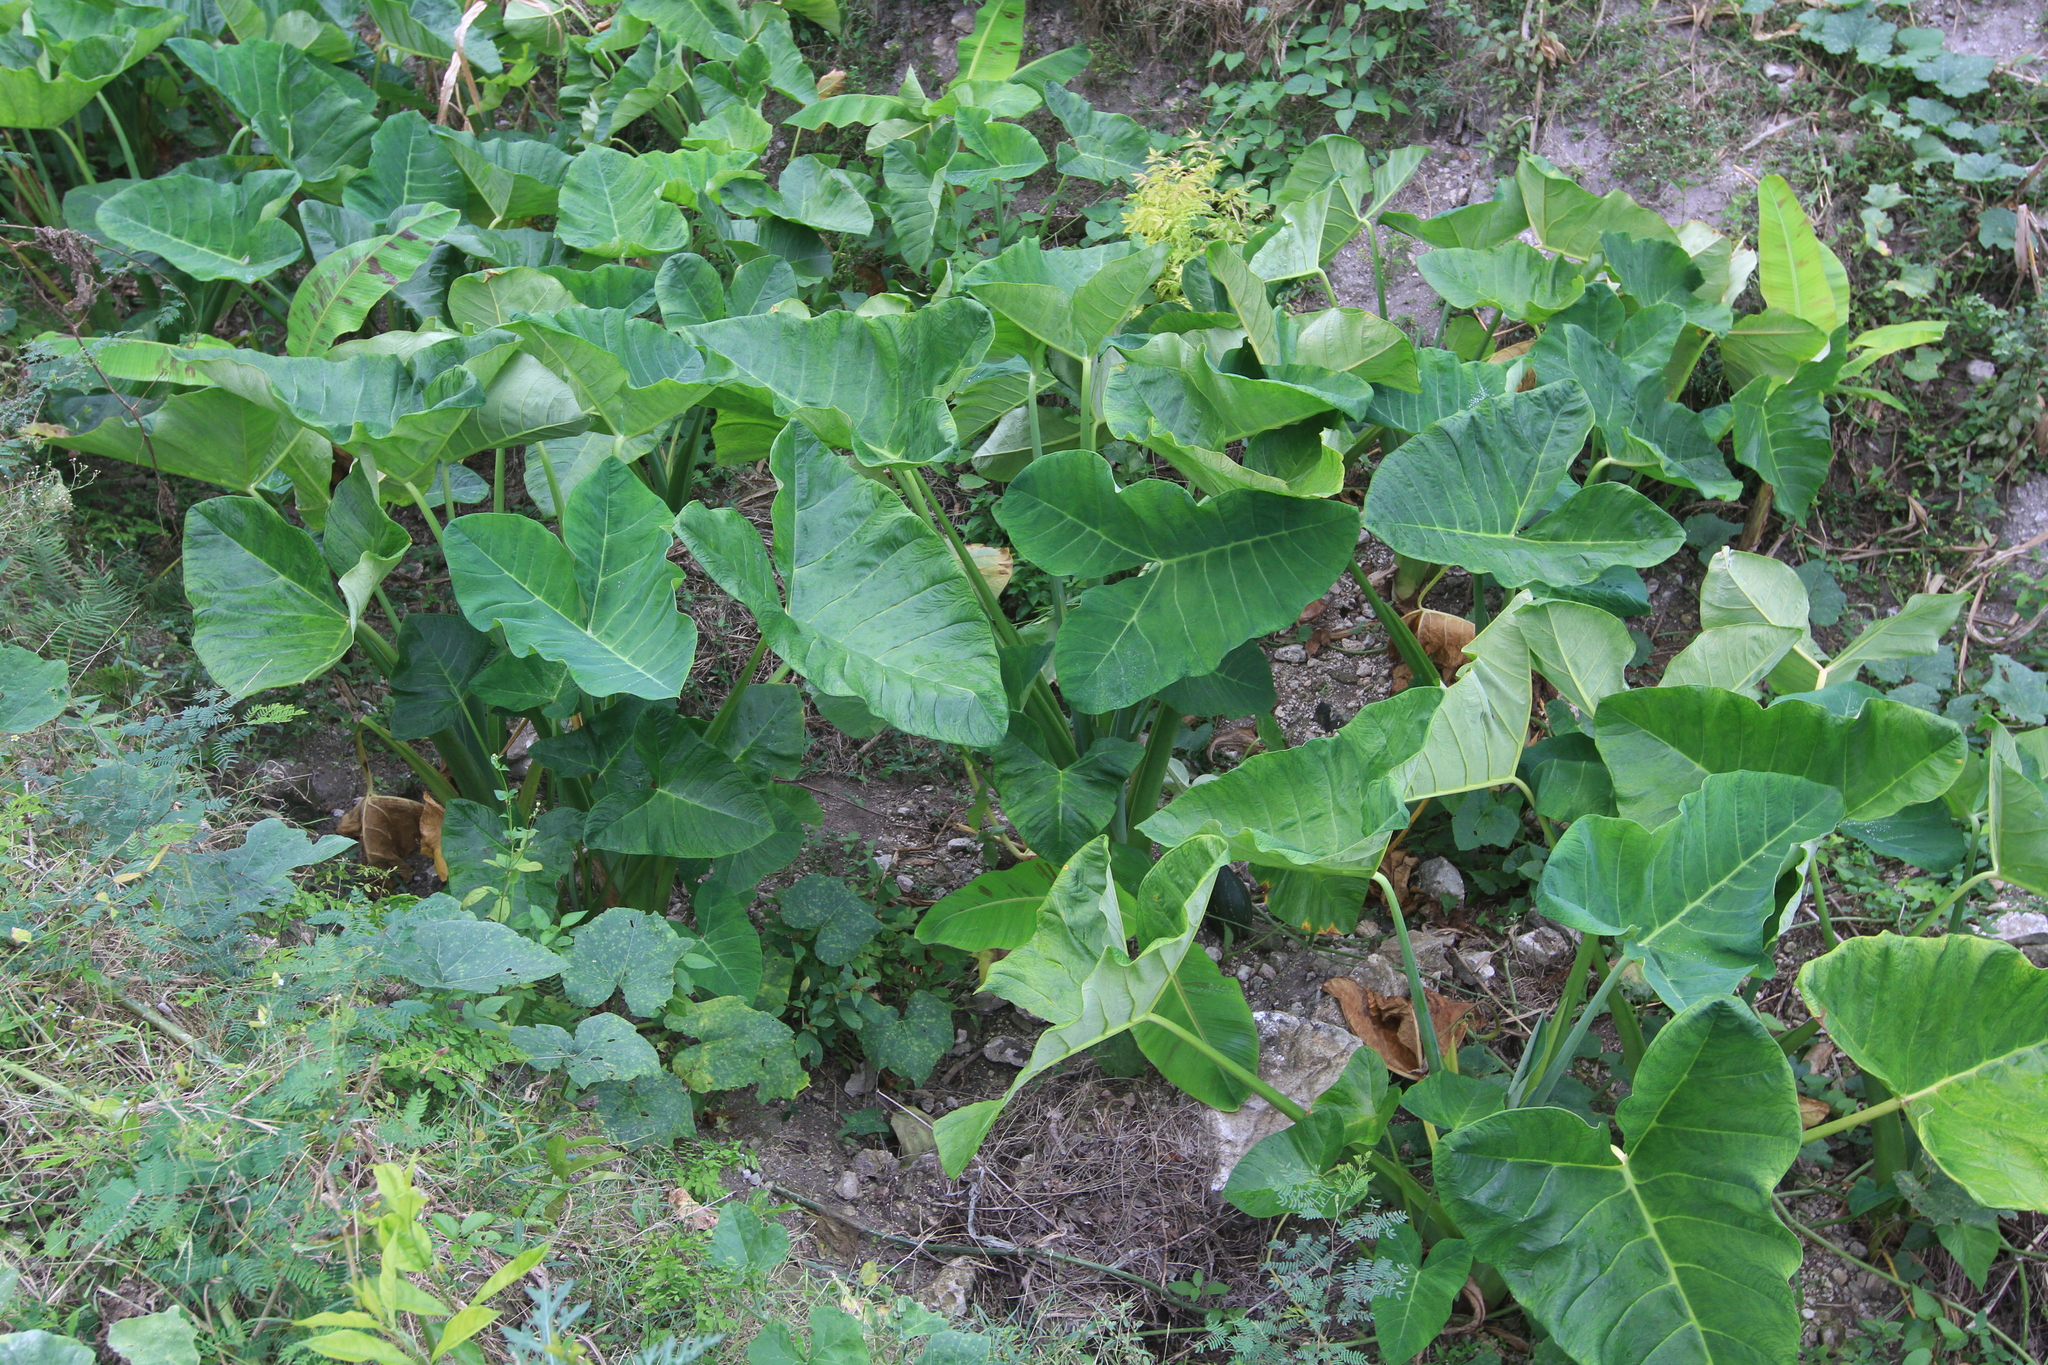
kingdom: Plantae
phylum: Tracheophyta
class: Liliopsida
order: Alismatales
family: Araceae
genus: Xanthosoma
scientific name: Xanthosoma sagittifolium
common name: Arrowleaf elephant's ear
